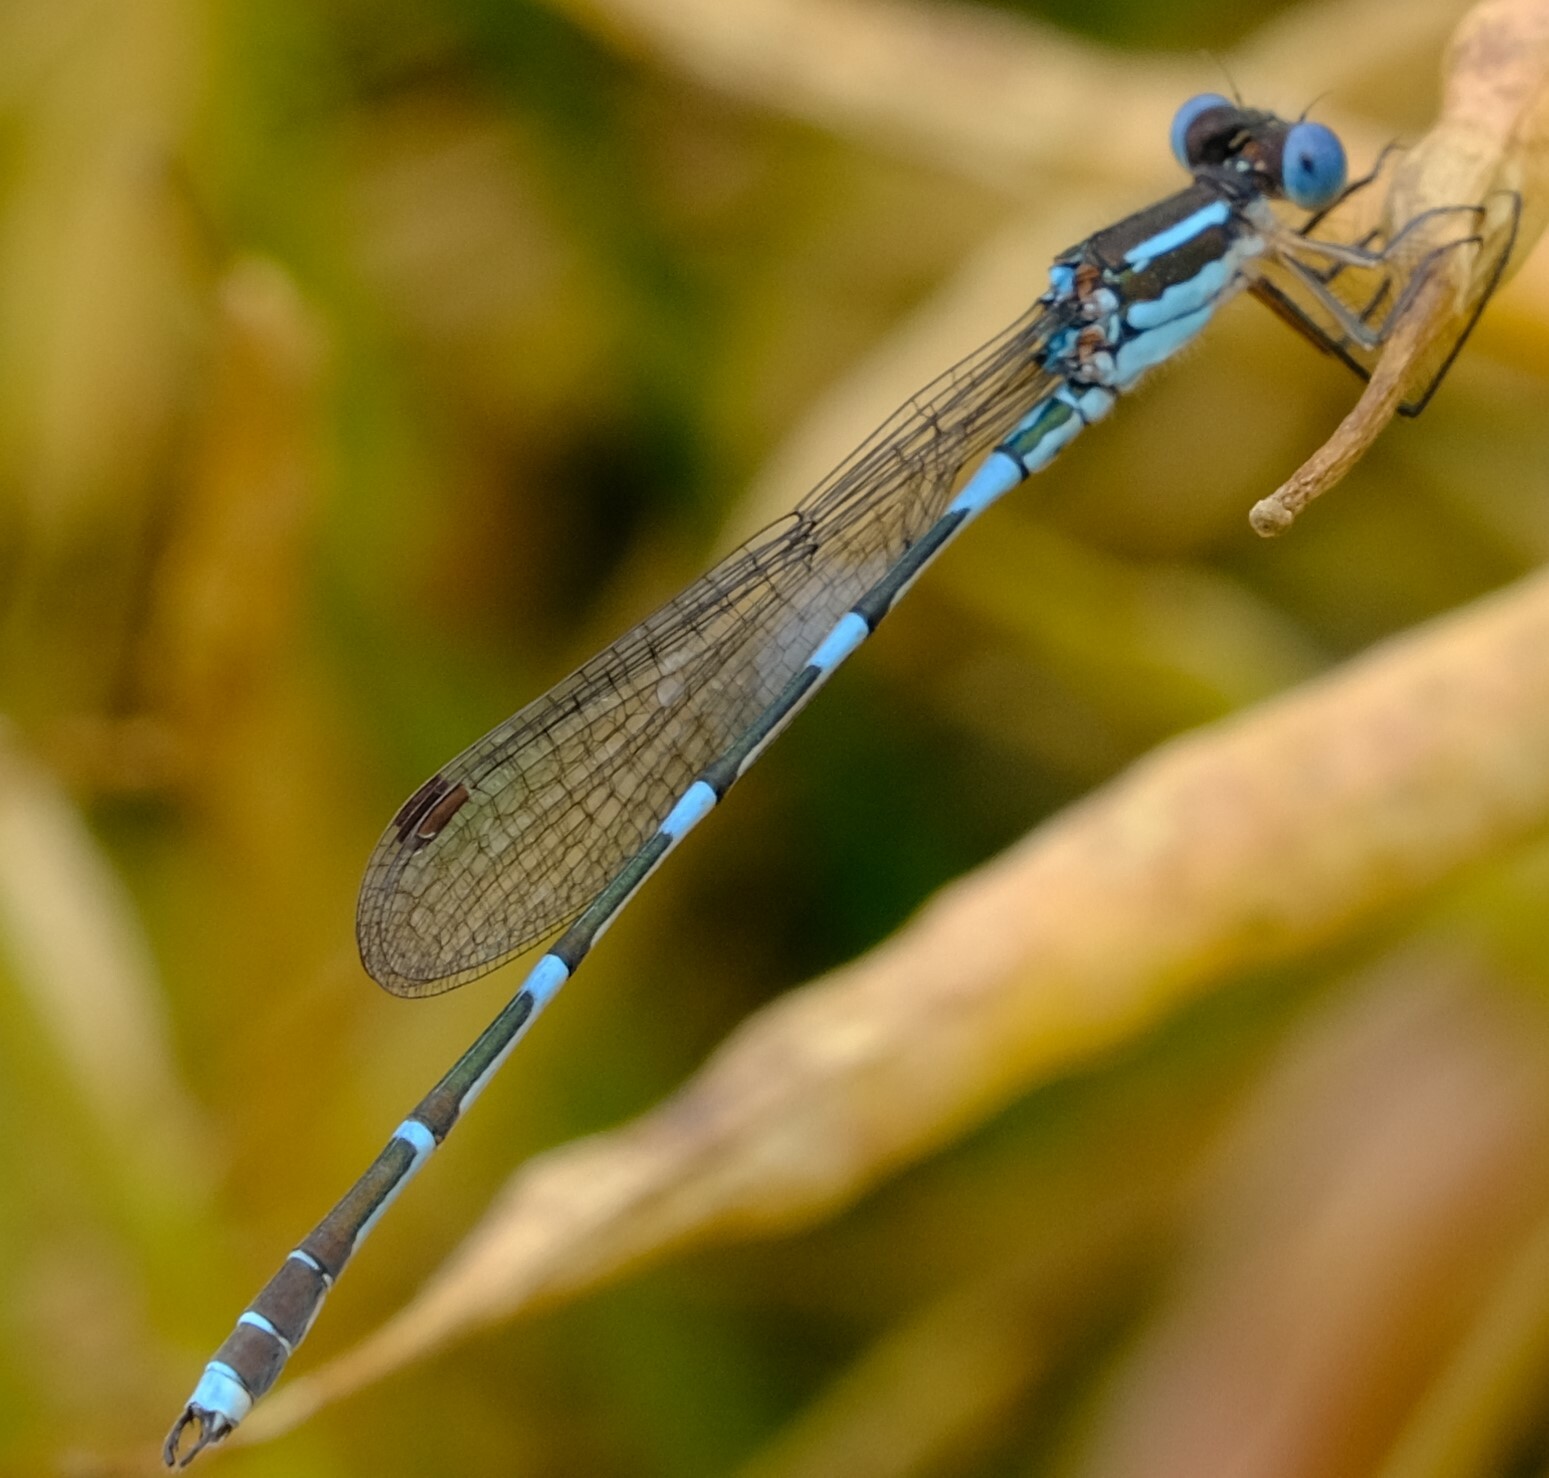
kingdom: Animalia
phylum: Arthropoda
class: Insecta
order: Odonata
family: Lestidae
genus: Austrolestes
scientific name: Austrolestes leda
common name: Wandering ringtail
